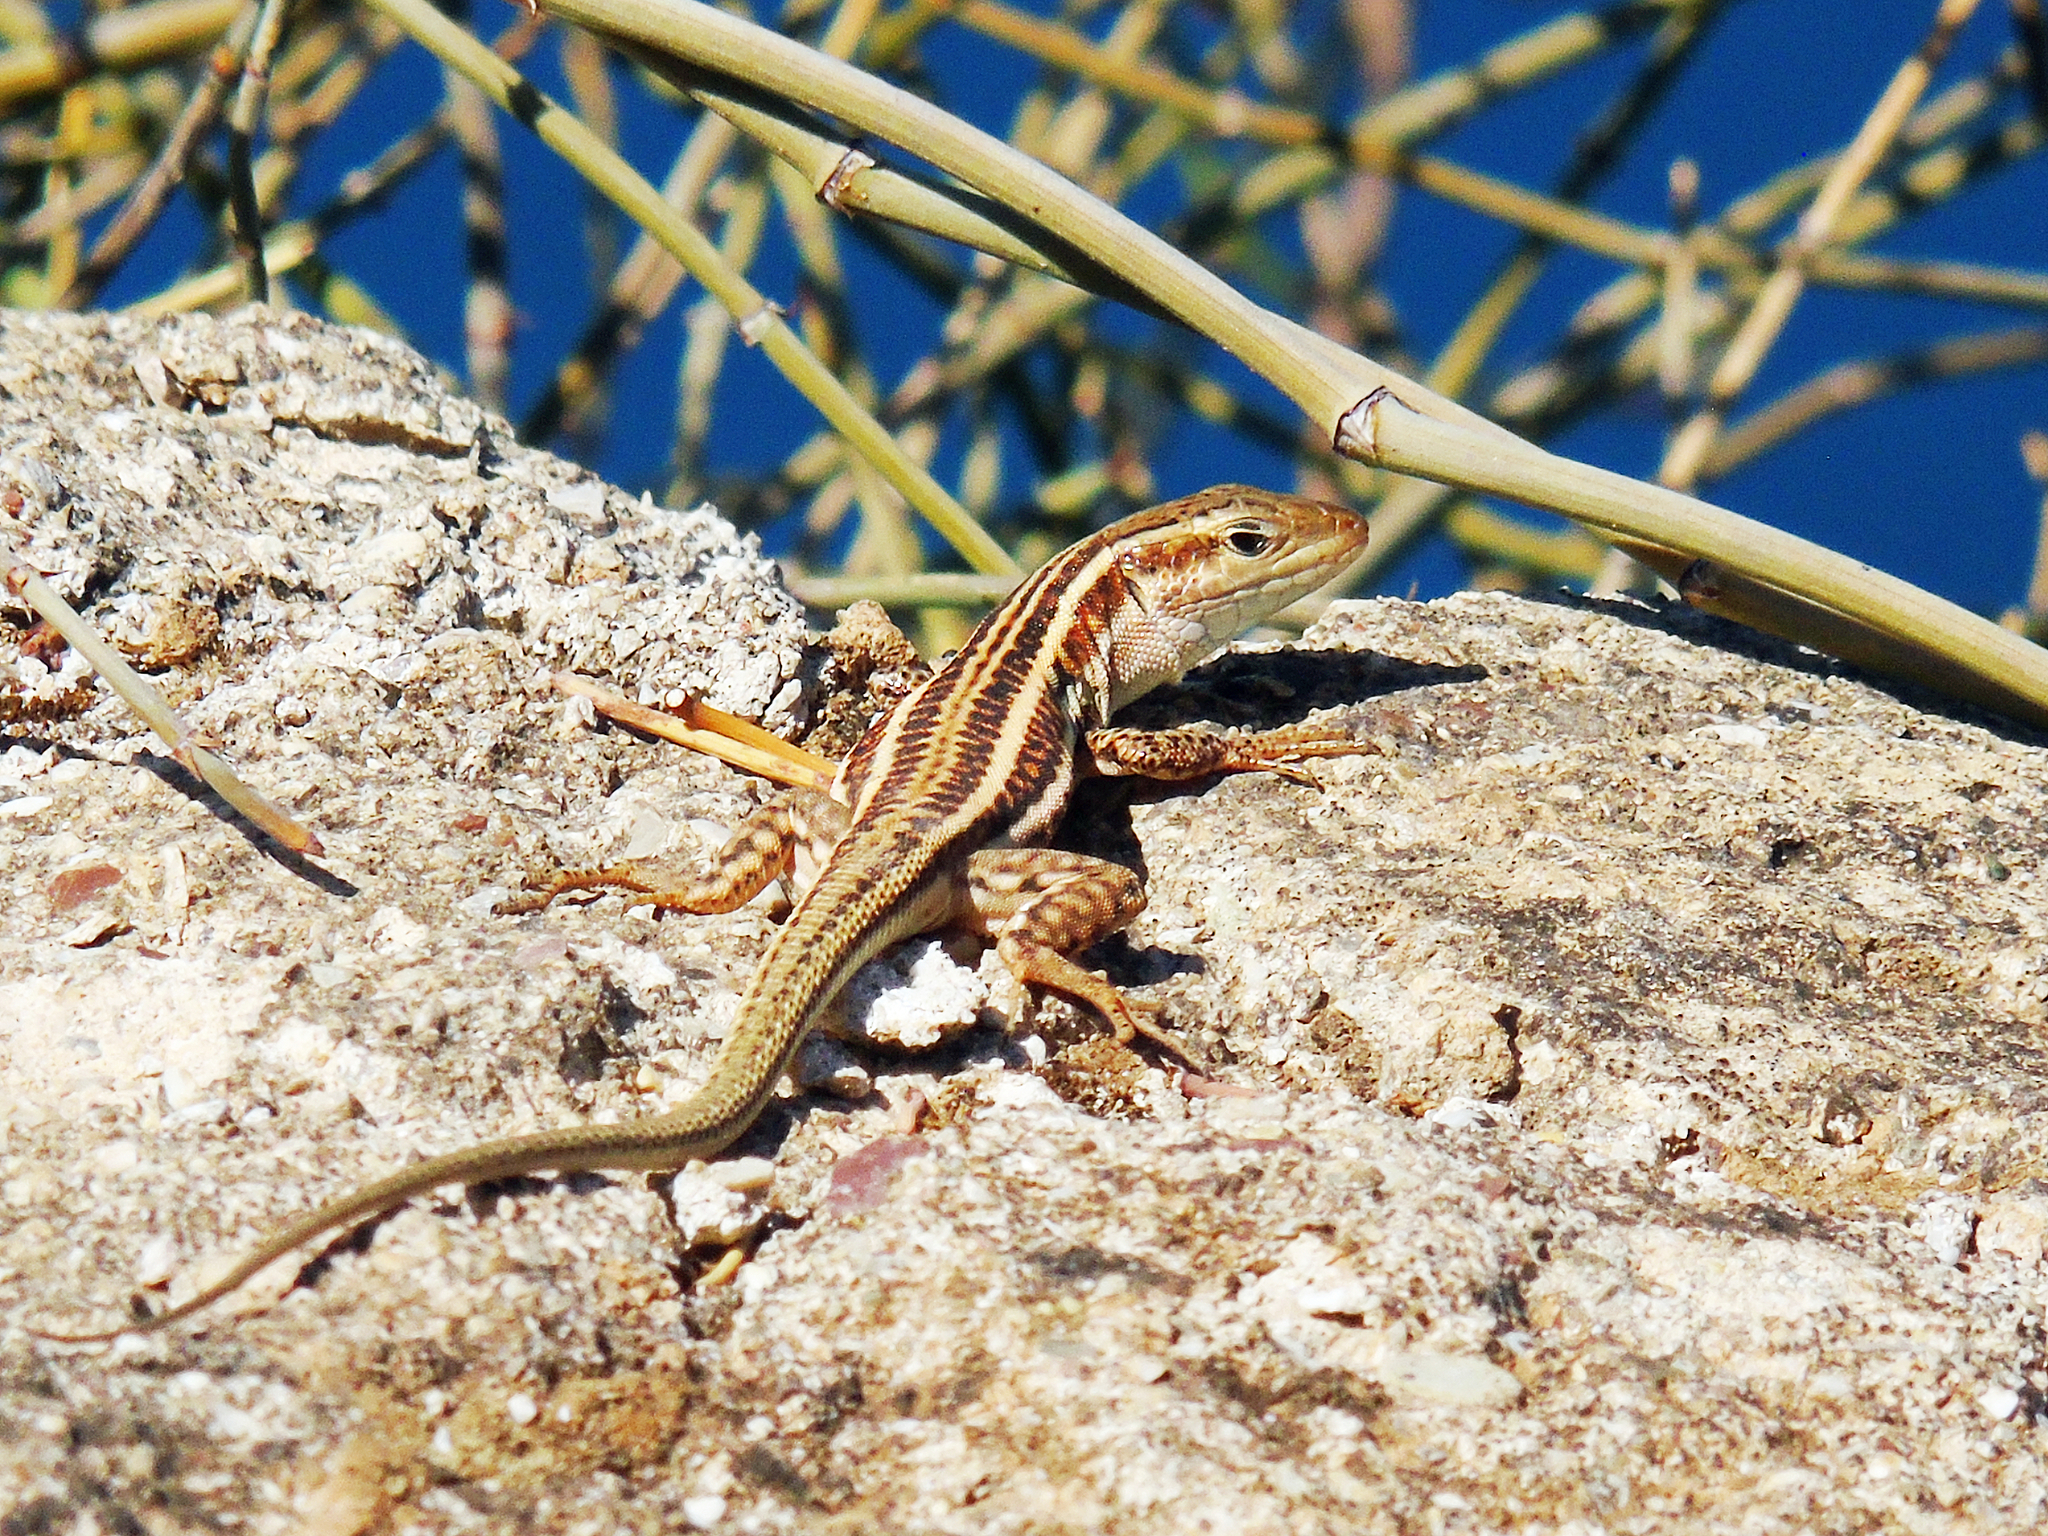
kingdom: Animalia
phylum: Chordata
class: Squamata
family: Lacertidae
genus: Podarcis
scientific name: Podarcis peloponnesiacus
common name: Peloponnese wall lizard
